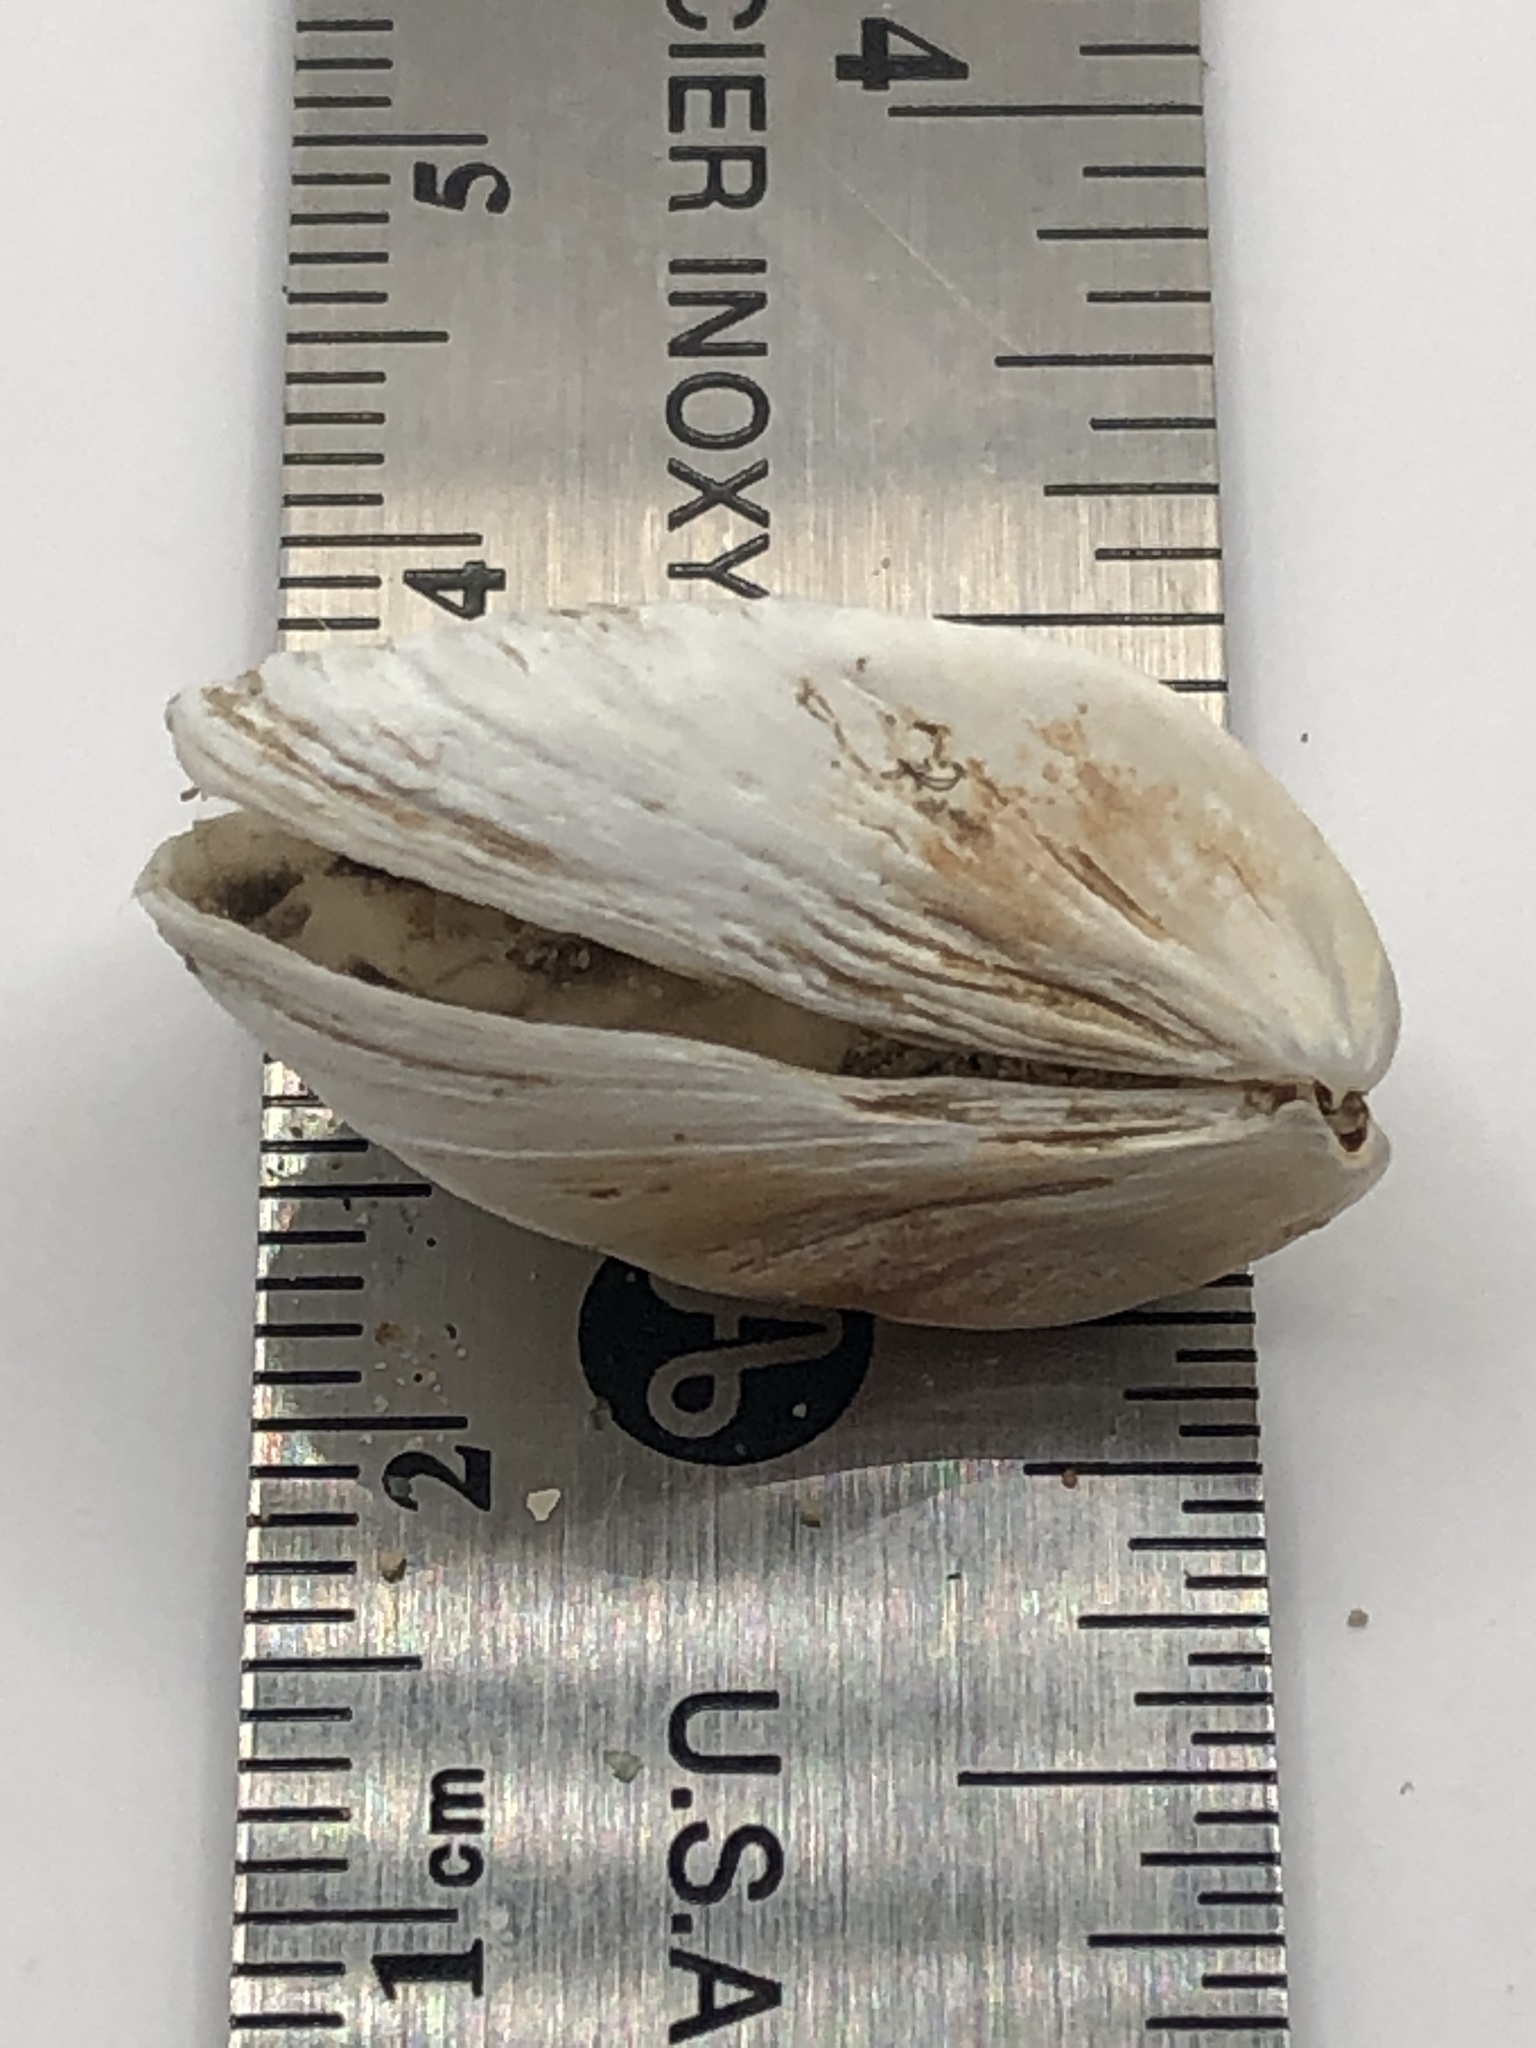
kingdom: Animalia
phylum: Mollusca
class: Bivalvia
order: Myida
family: Dreissenidae
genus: Dreissena
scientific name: Dreissena polymorpha
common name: Zebra mussel
